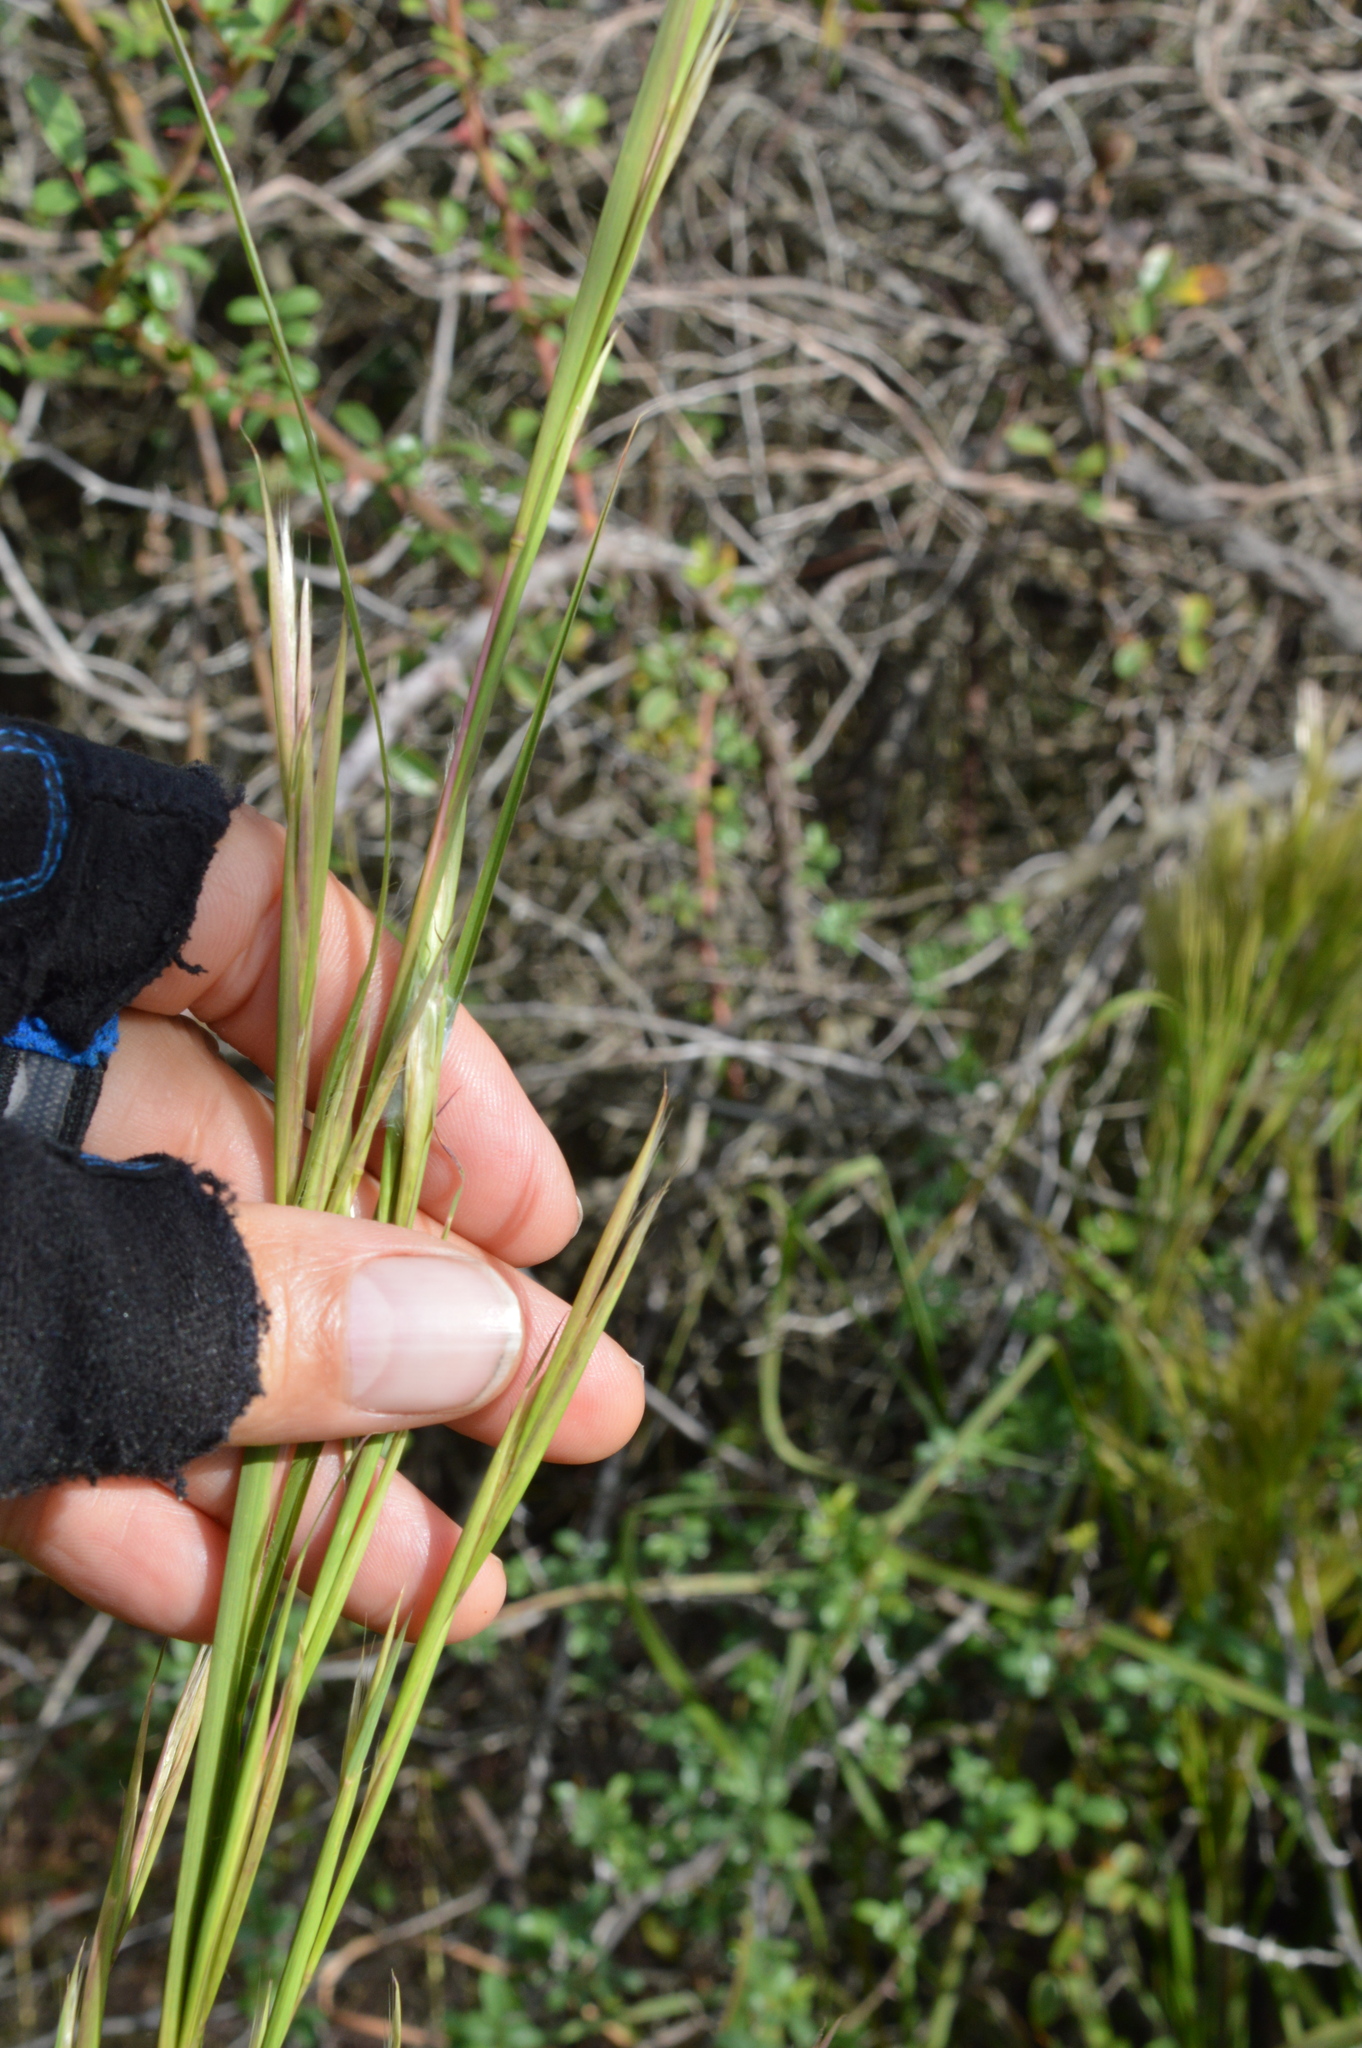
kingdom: Plantae
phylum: Tracheophyta
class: Liliopsida
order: Poales
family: Poaceae
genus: Andropogon
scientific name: Andropogon virginicus
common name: Broomsedge bluestem
